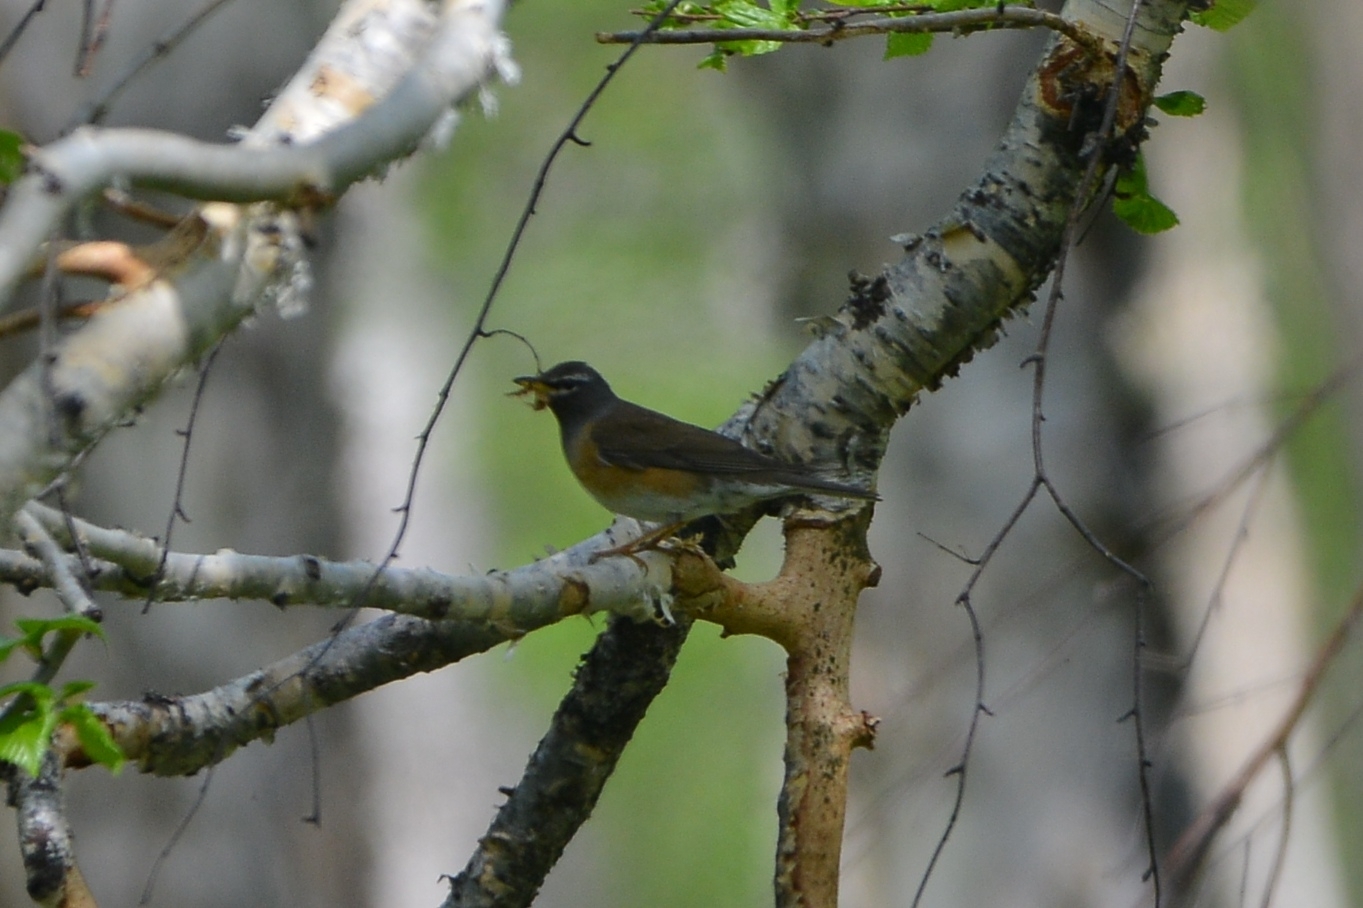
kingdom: Animalia
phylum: Chordata
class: Aves
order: Passeriformes
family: Turdidae
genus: Turdus
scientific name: Turdus obscurus
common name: Eyebrowed thrush
